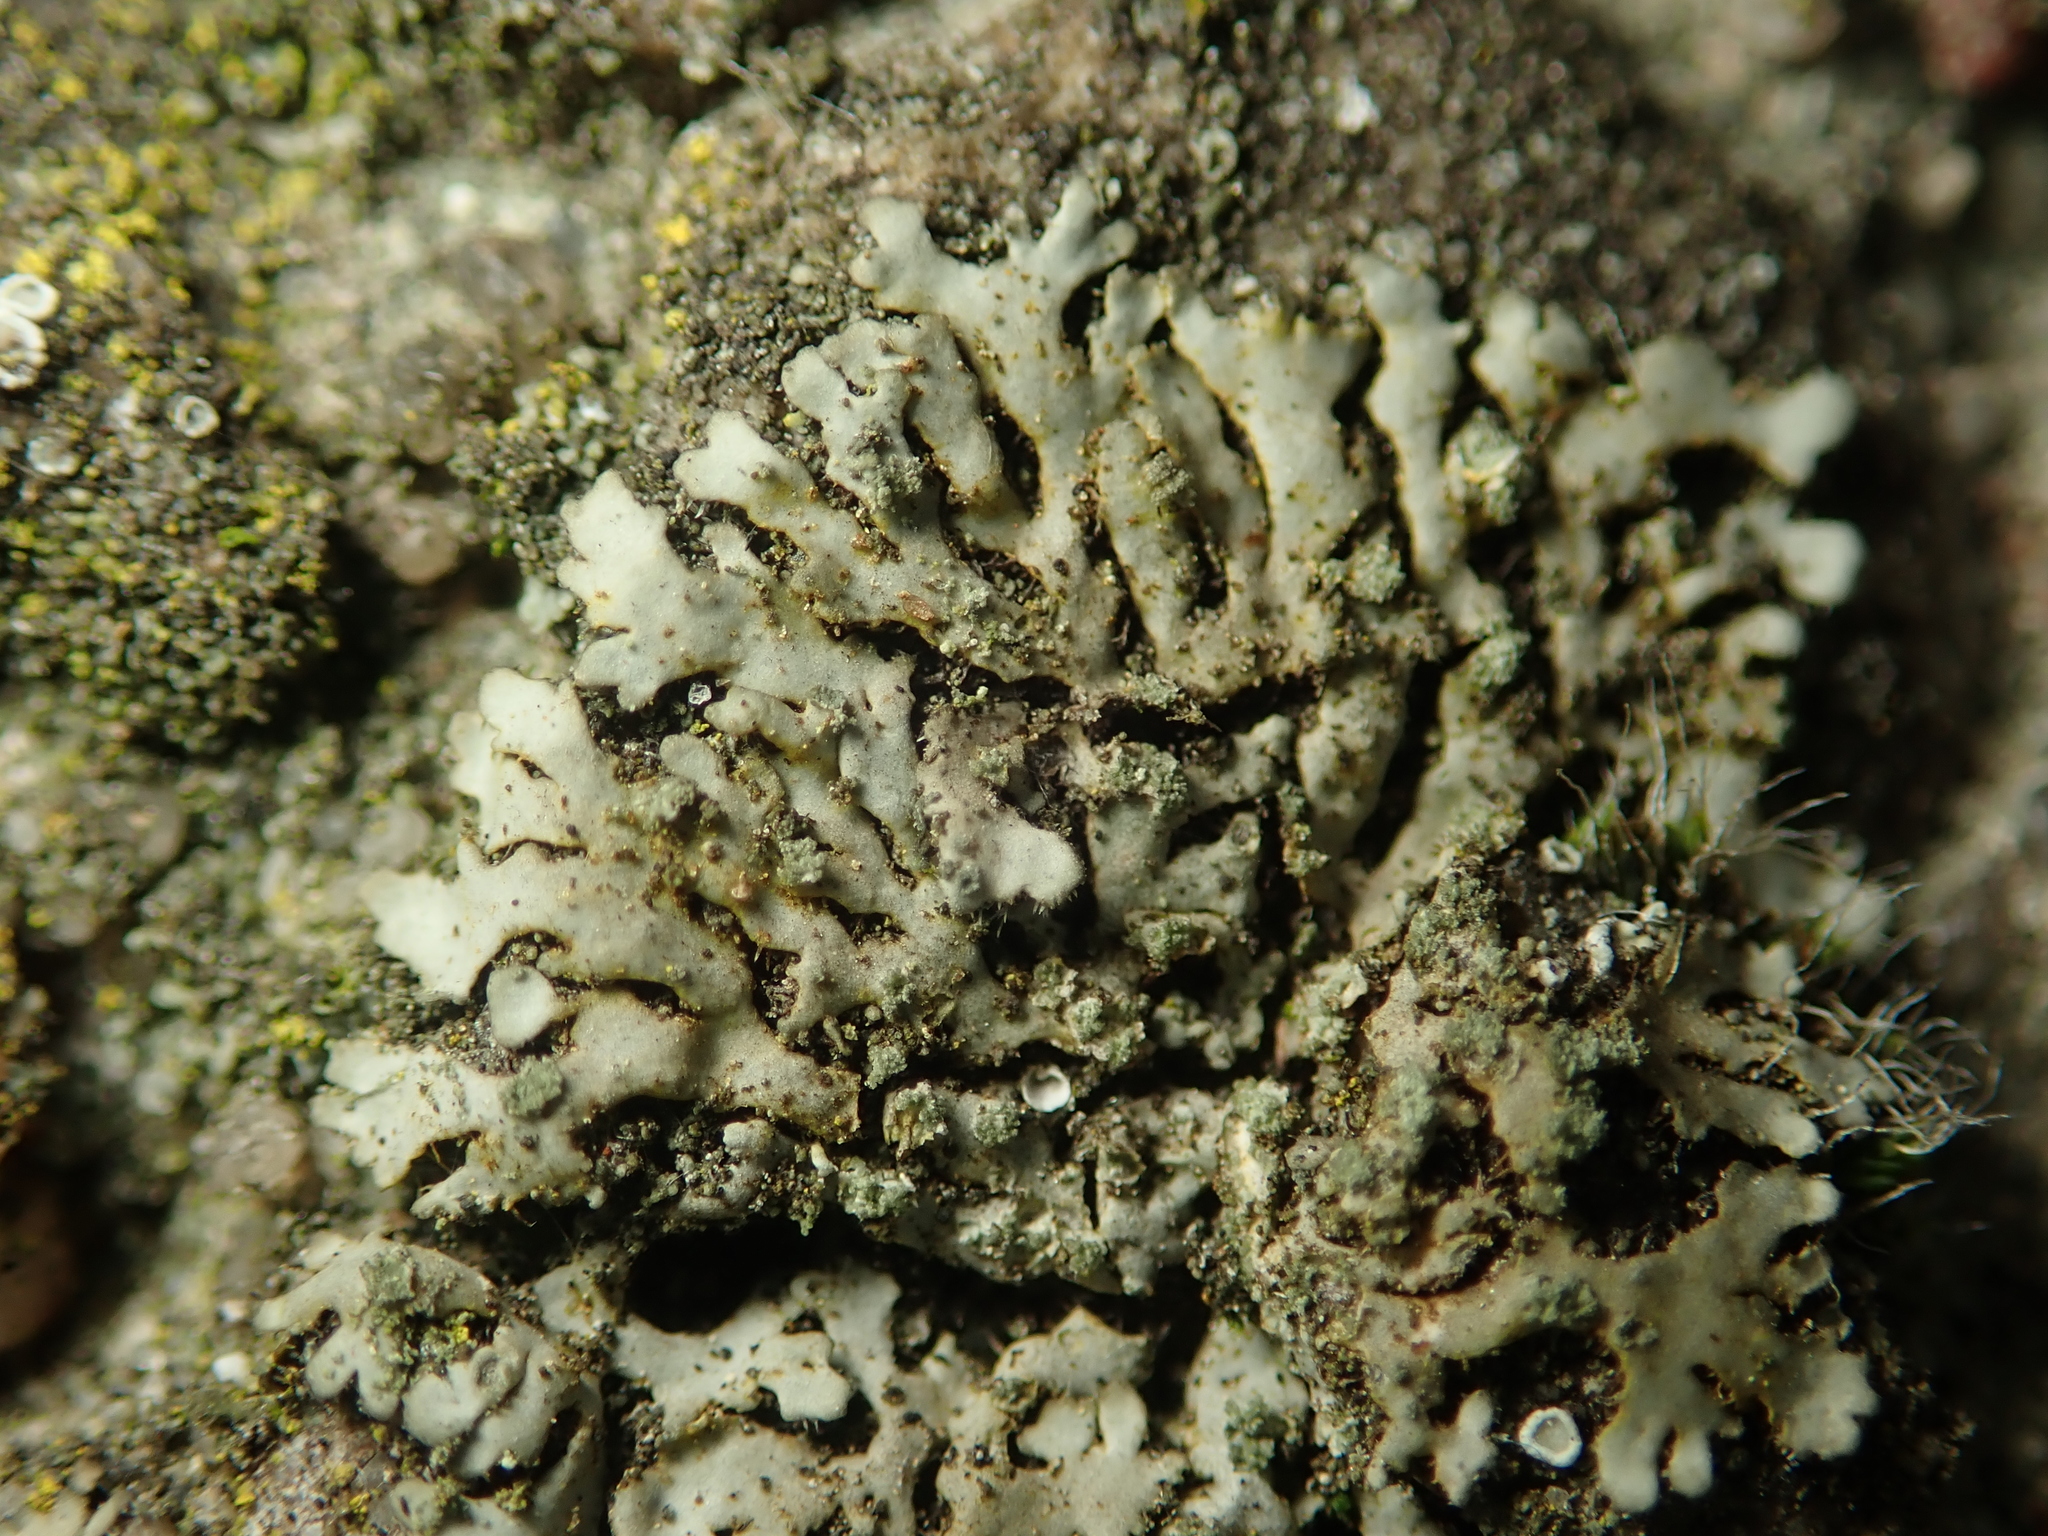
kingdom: Fungi
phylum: Ascomycota
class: Lecanoromycetes
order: Caliciales
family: Physciaceae
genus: Phaeophyscia
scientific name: Phaeophyscia orbicularis
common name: Mealy shadow lichen
